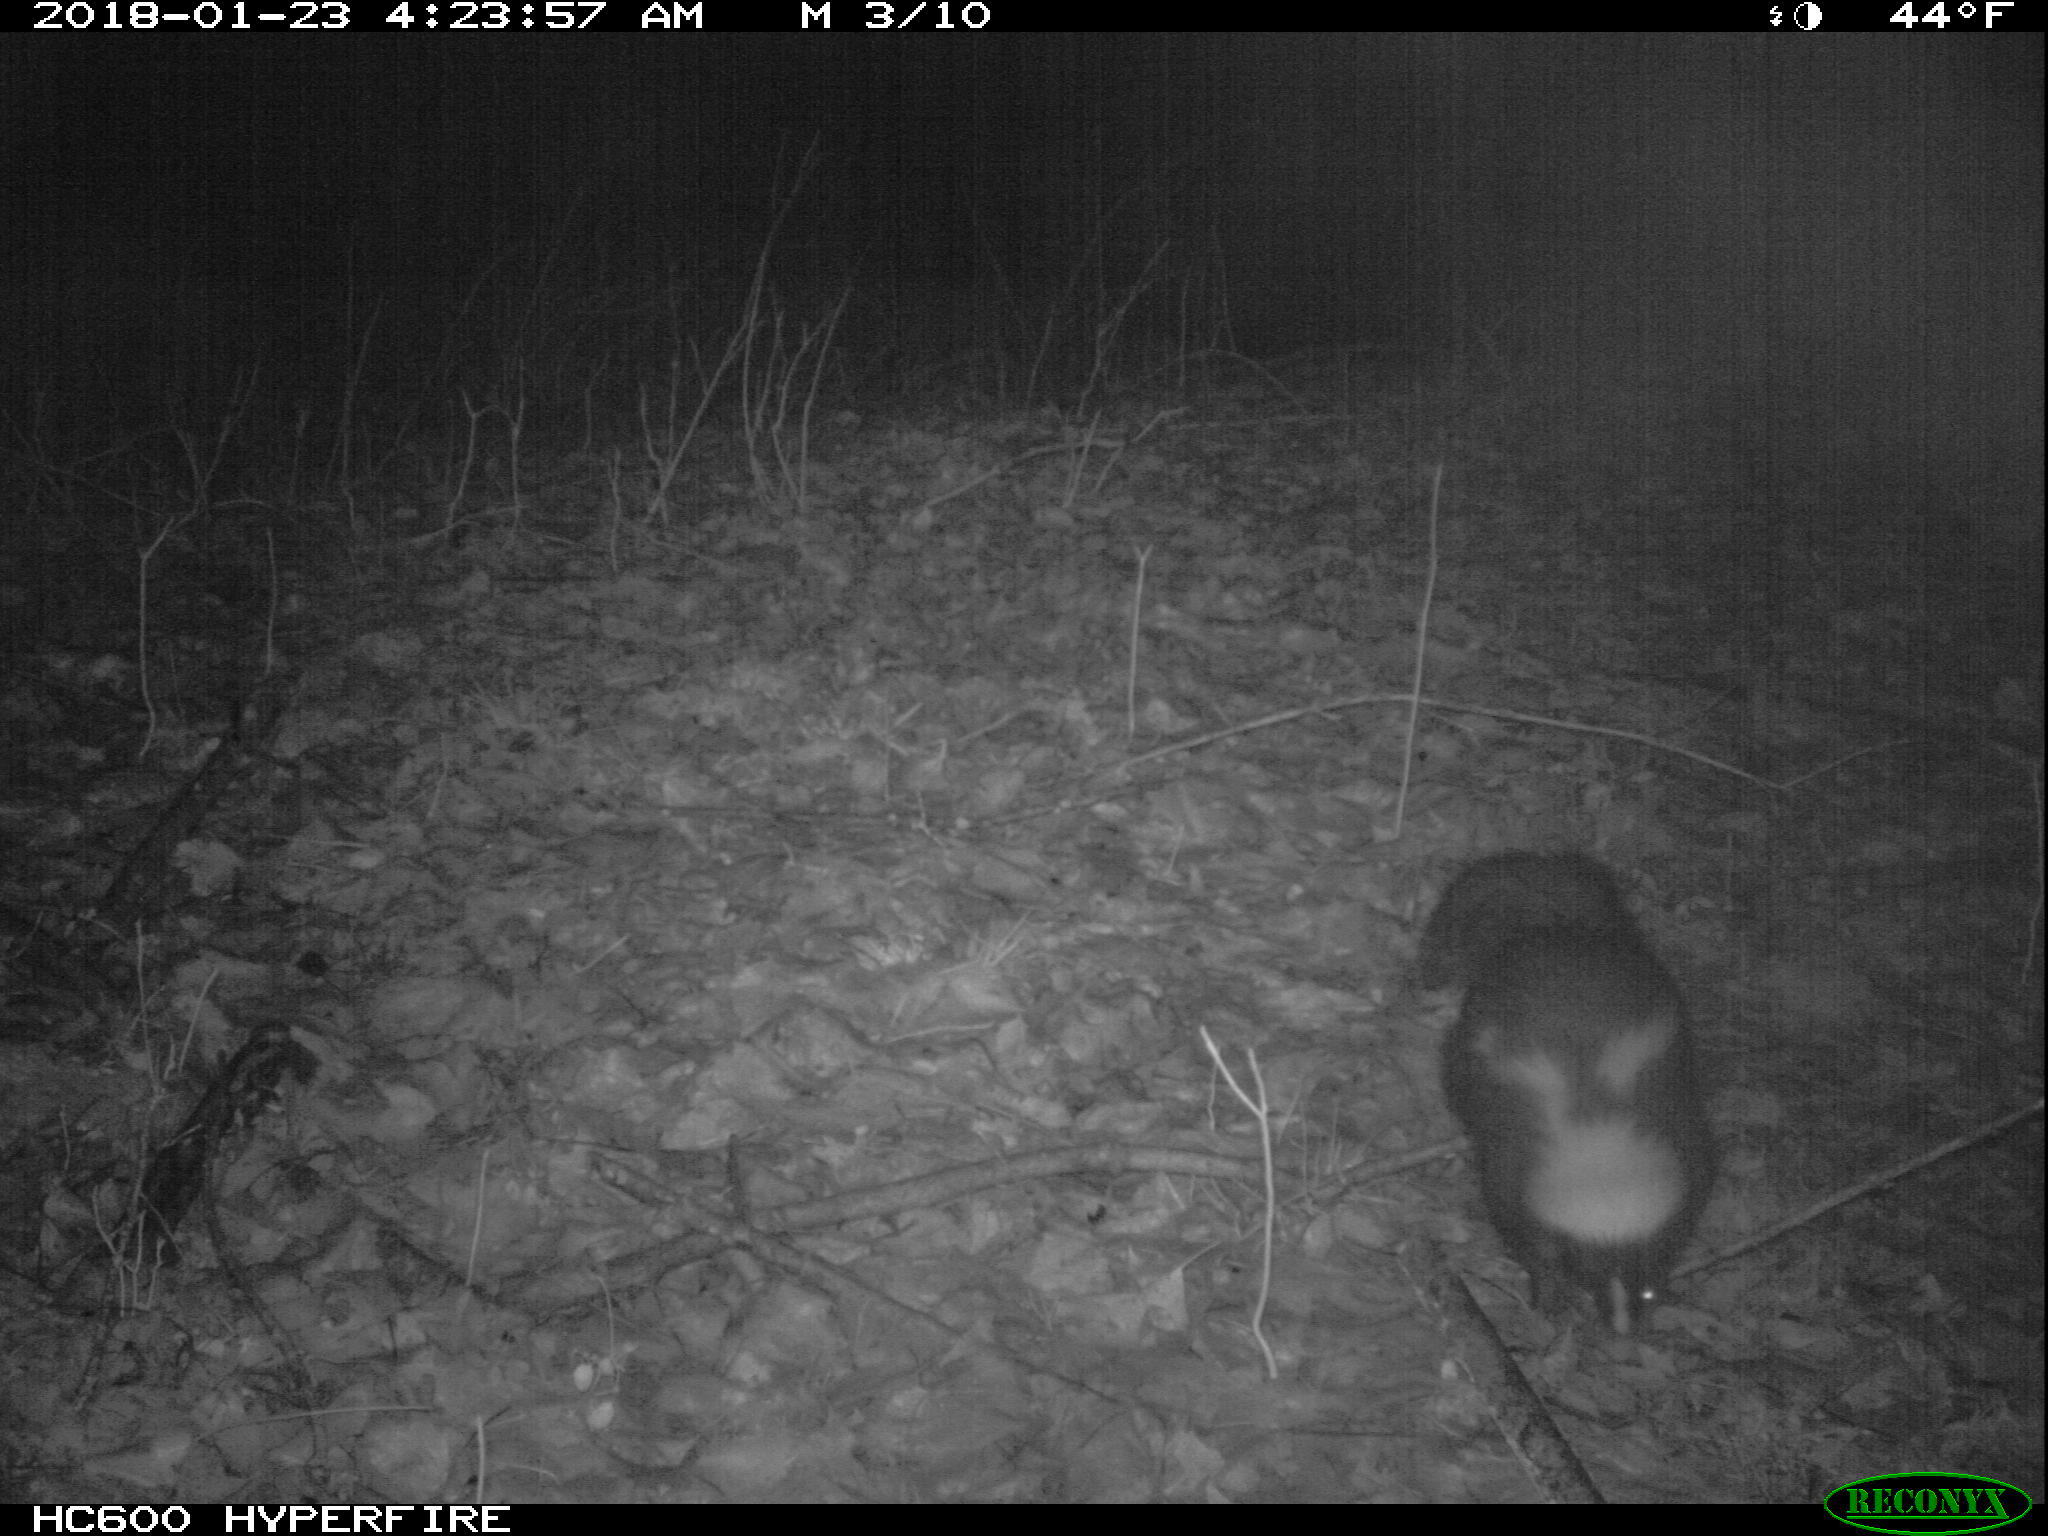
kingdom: Animalia
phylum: Chordata
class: Mammalia
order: Carnivora
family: Mephitidae
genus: Mephitis
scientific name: Mephitis mephitis
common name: Striped skunk
